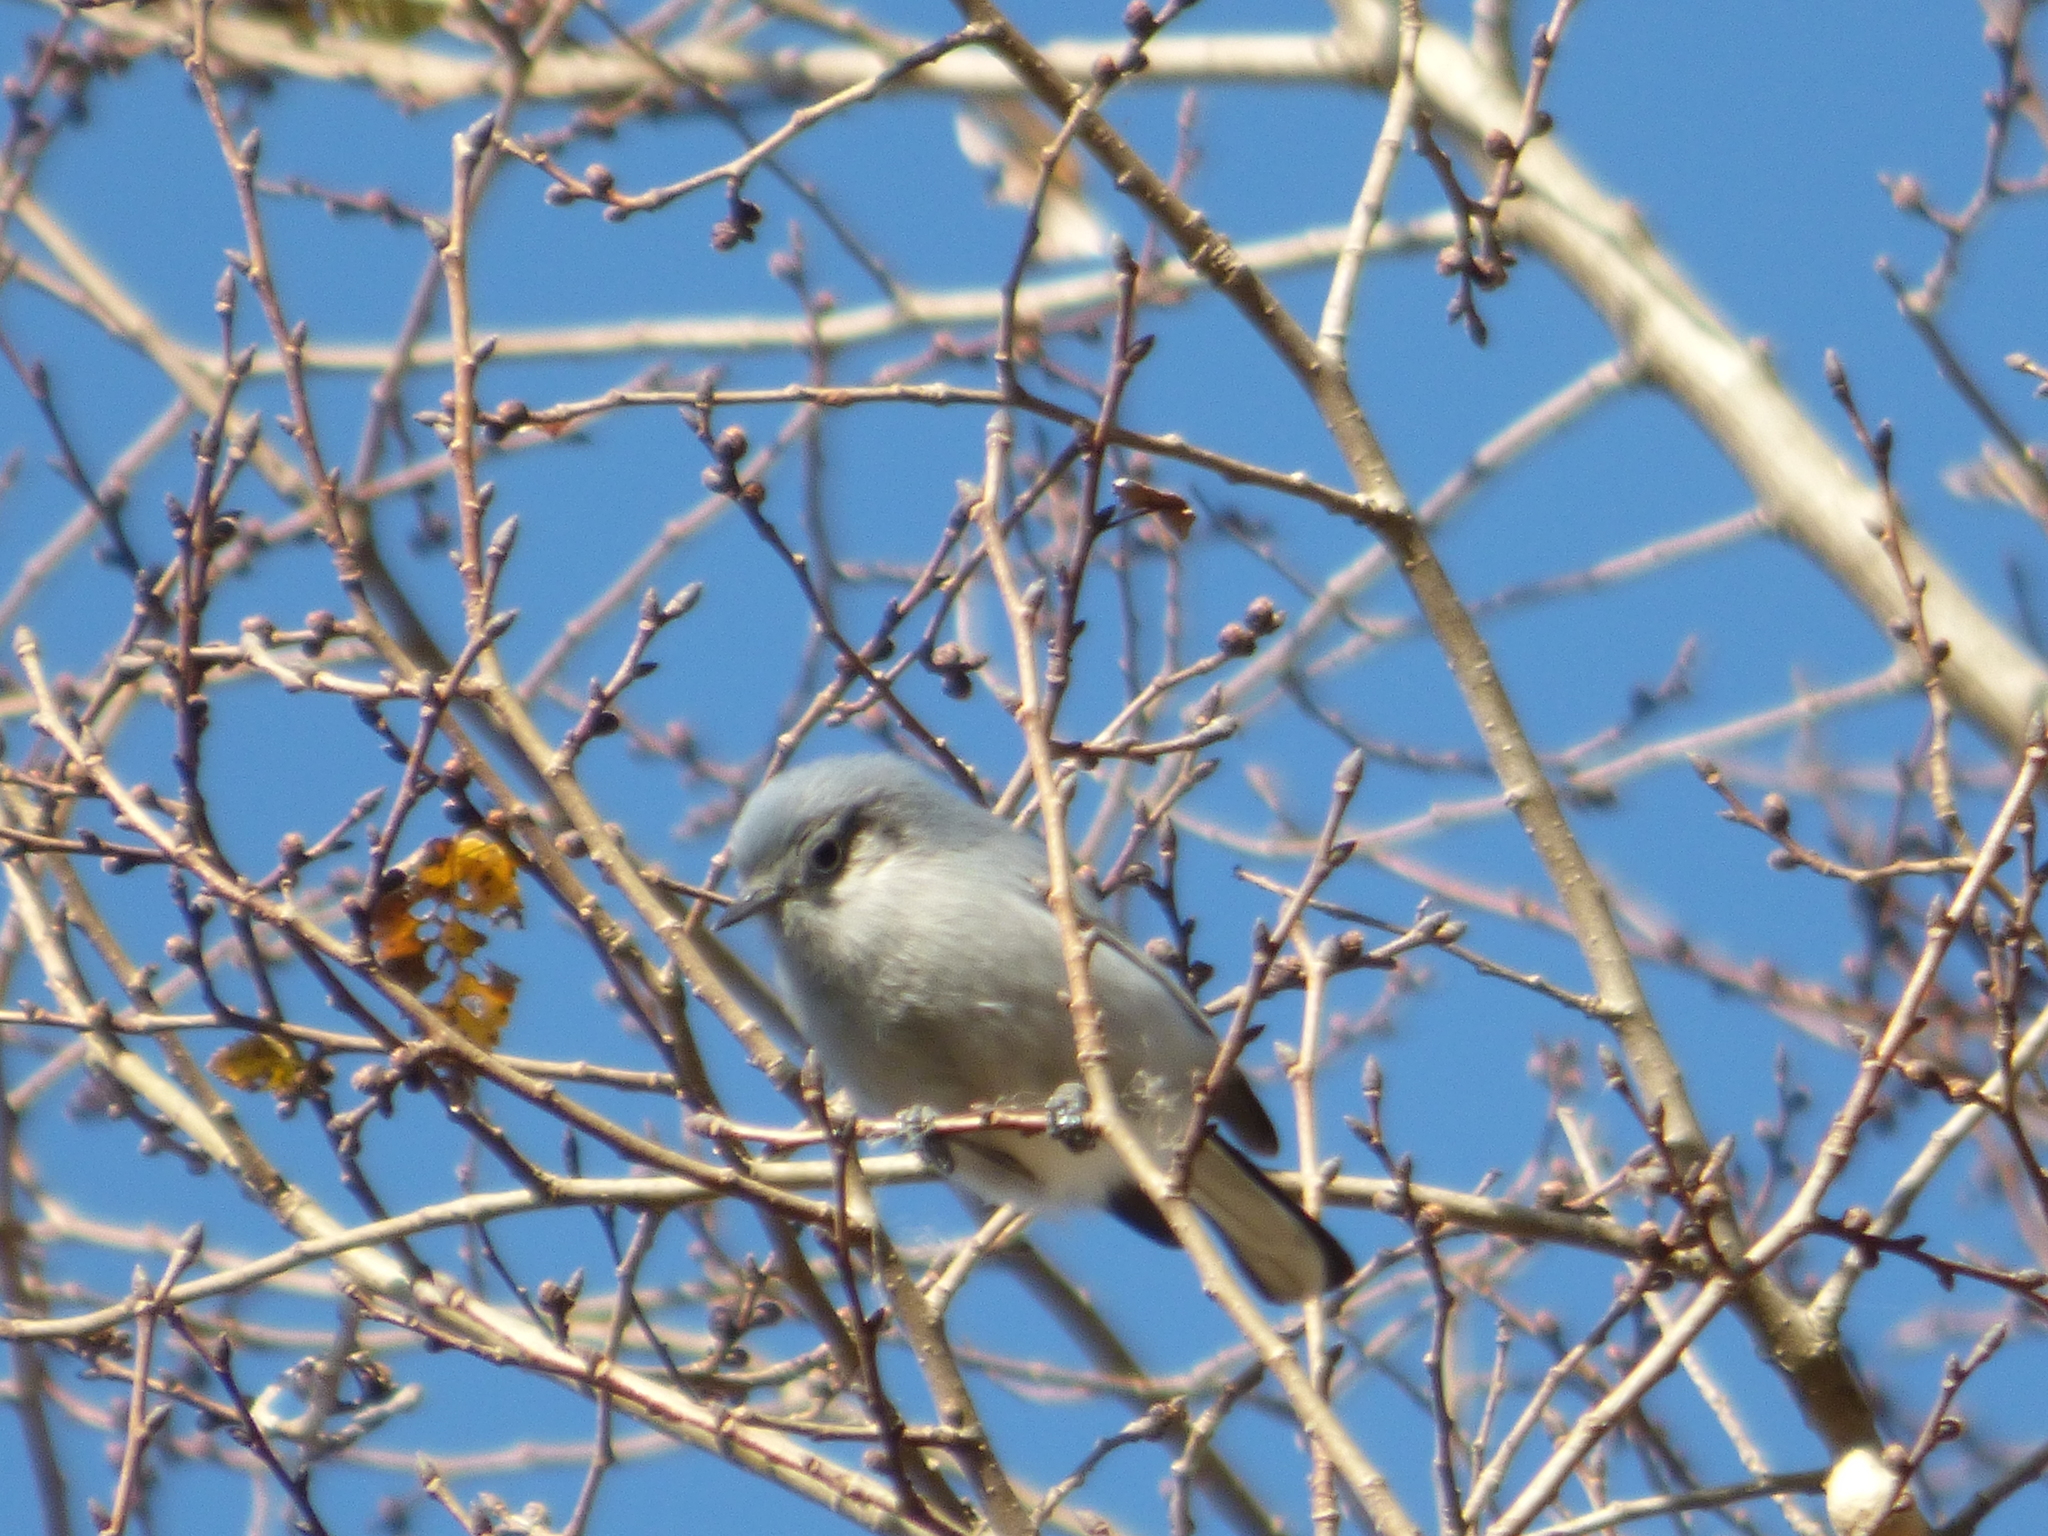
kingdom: Animalia
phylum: Chordata
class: Aves
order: Passeriformes
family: Polioptilidae
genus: Polioptila
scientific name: Polioptila dumicola
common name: Masked gnatcatcher
